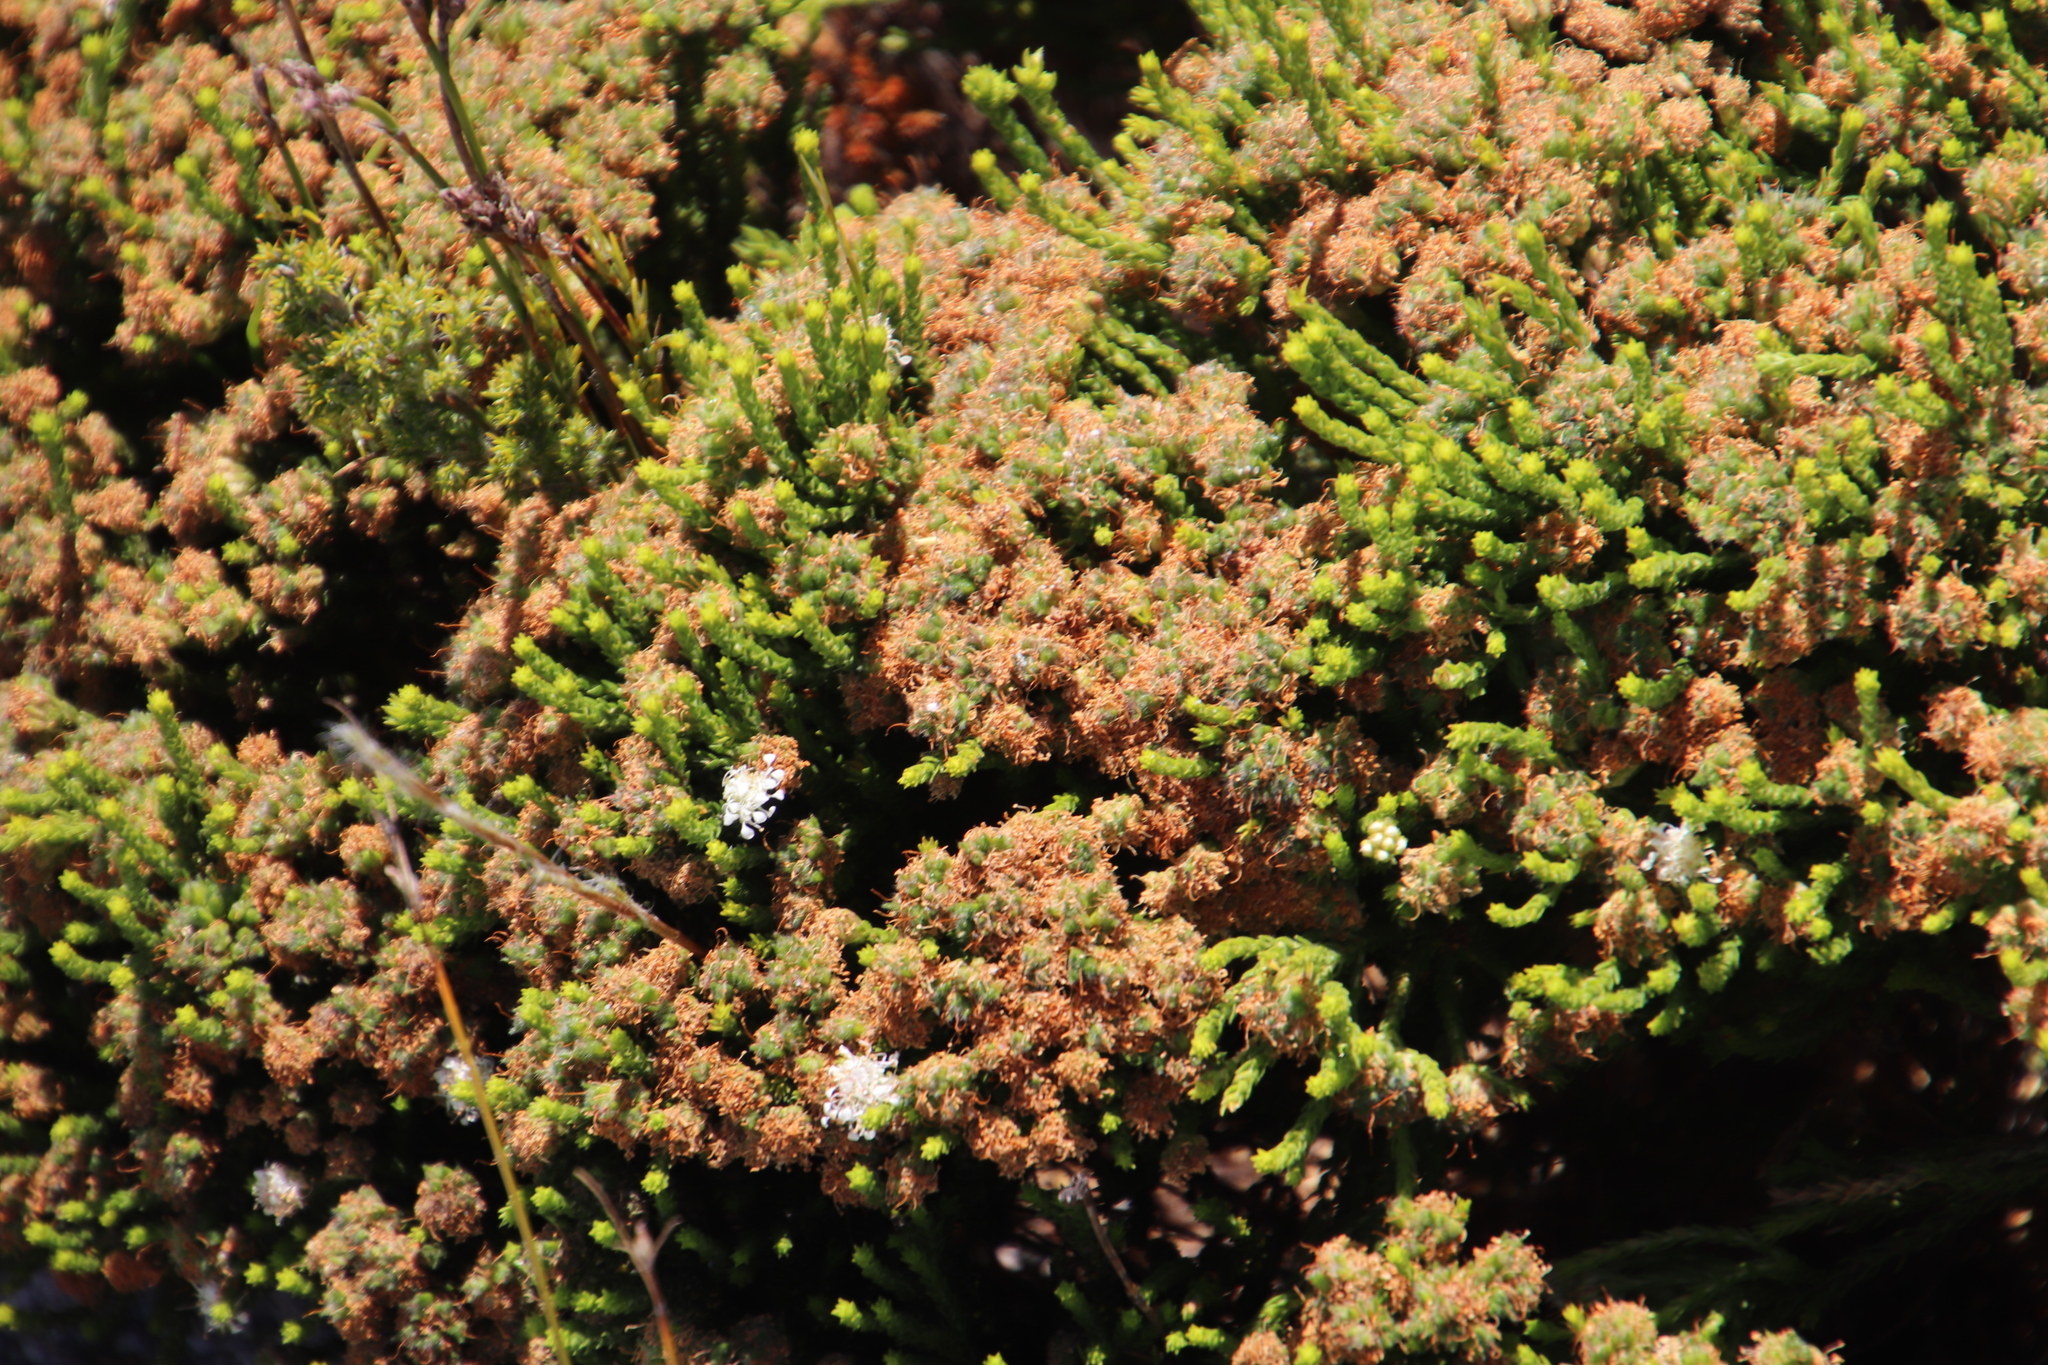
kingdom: Plantae
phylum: Tracheophyta
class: Magnoliopsida
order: Sapindales
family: Rutaceae
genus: Agathosma
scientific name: Agathosma imbricata
